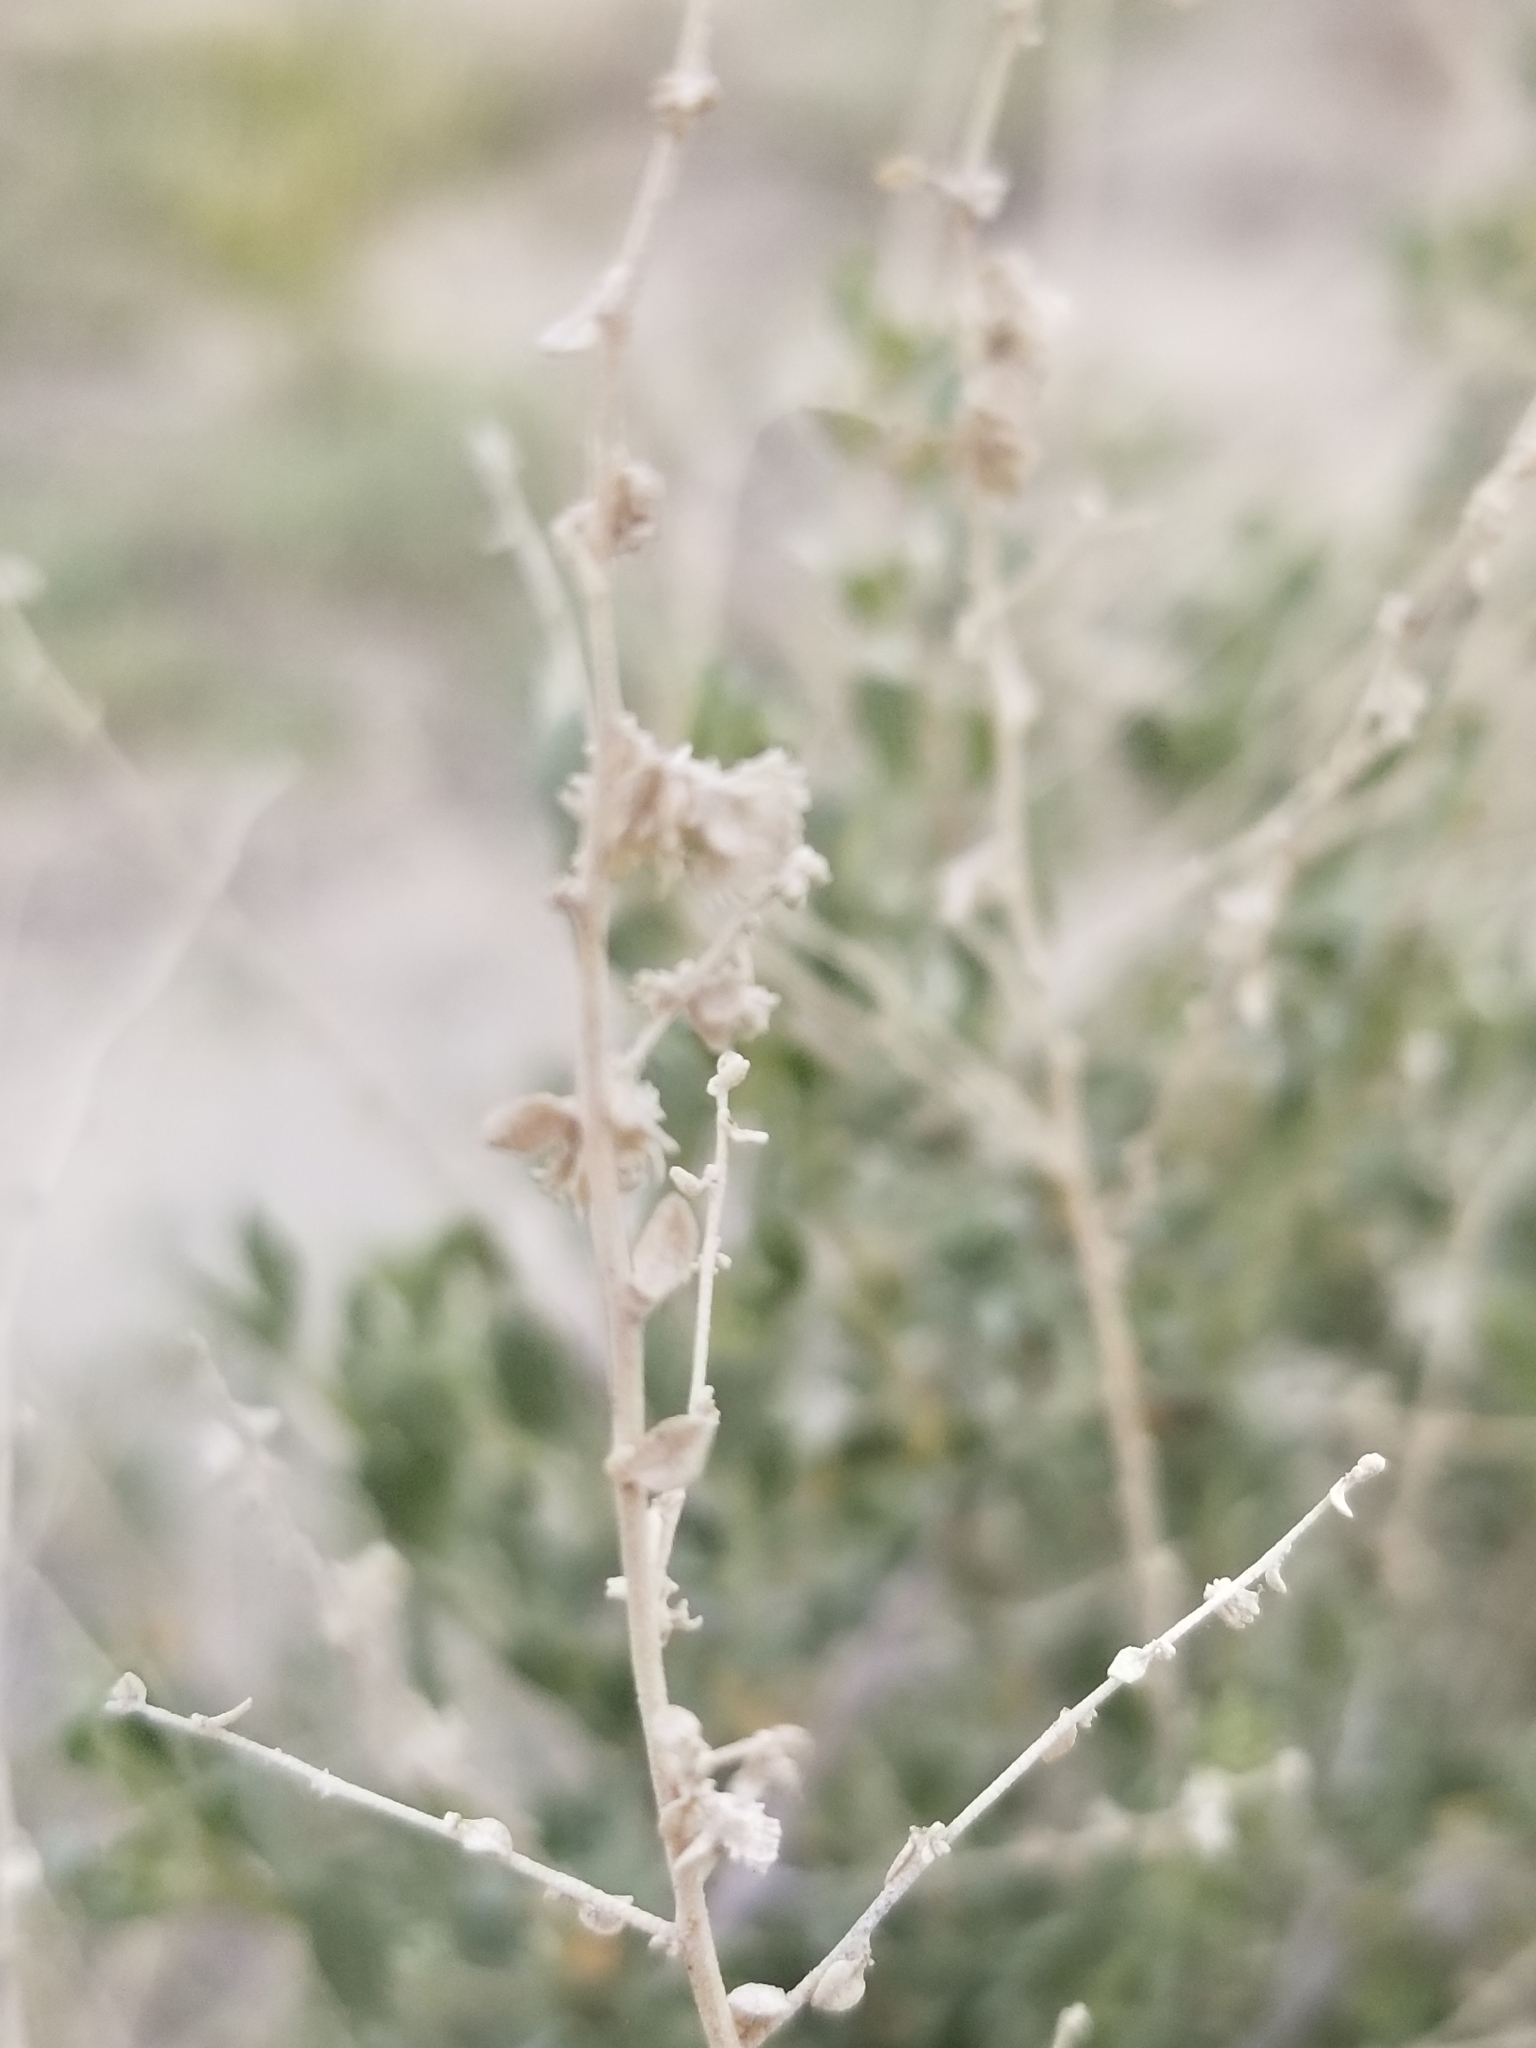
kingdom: Plantae
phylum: Tracheophyta
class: Magnoliopsida
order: Caryophyllales
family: Amaranthaceae
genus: Atriplex
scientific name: Atriplex polycarpa
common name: Desert saltbush
